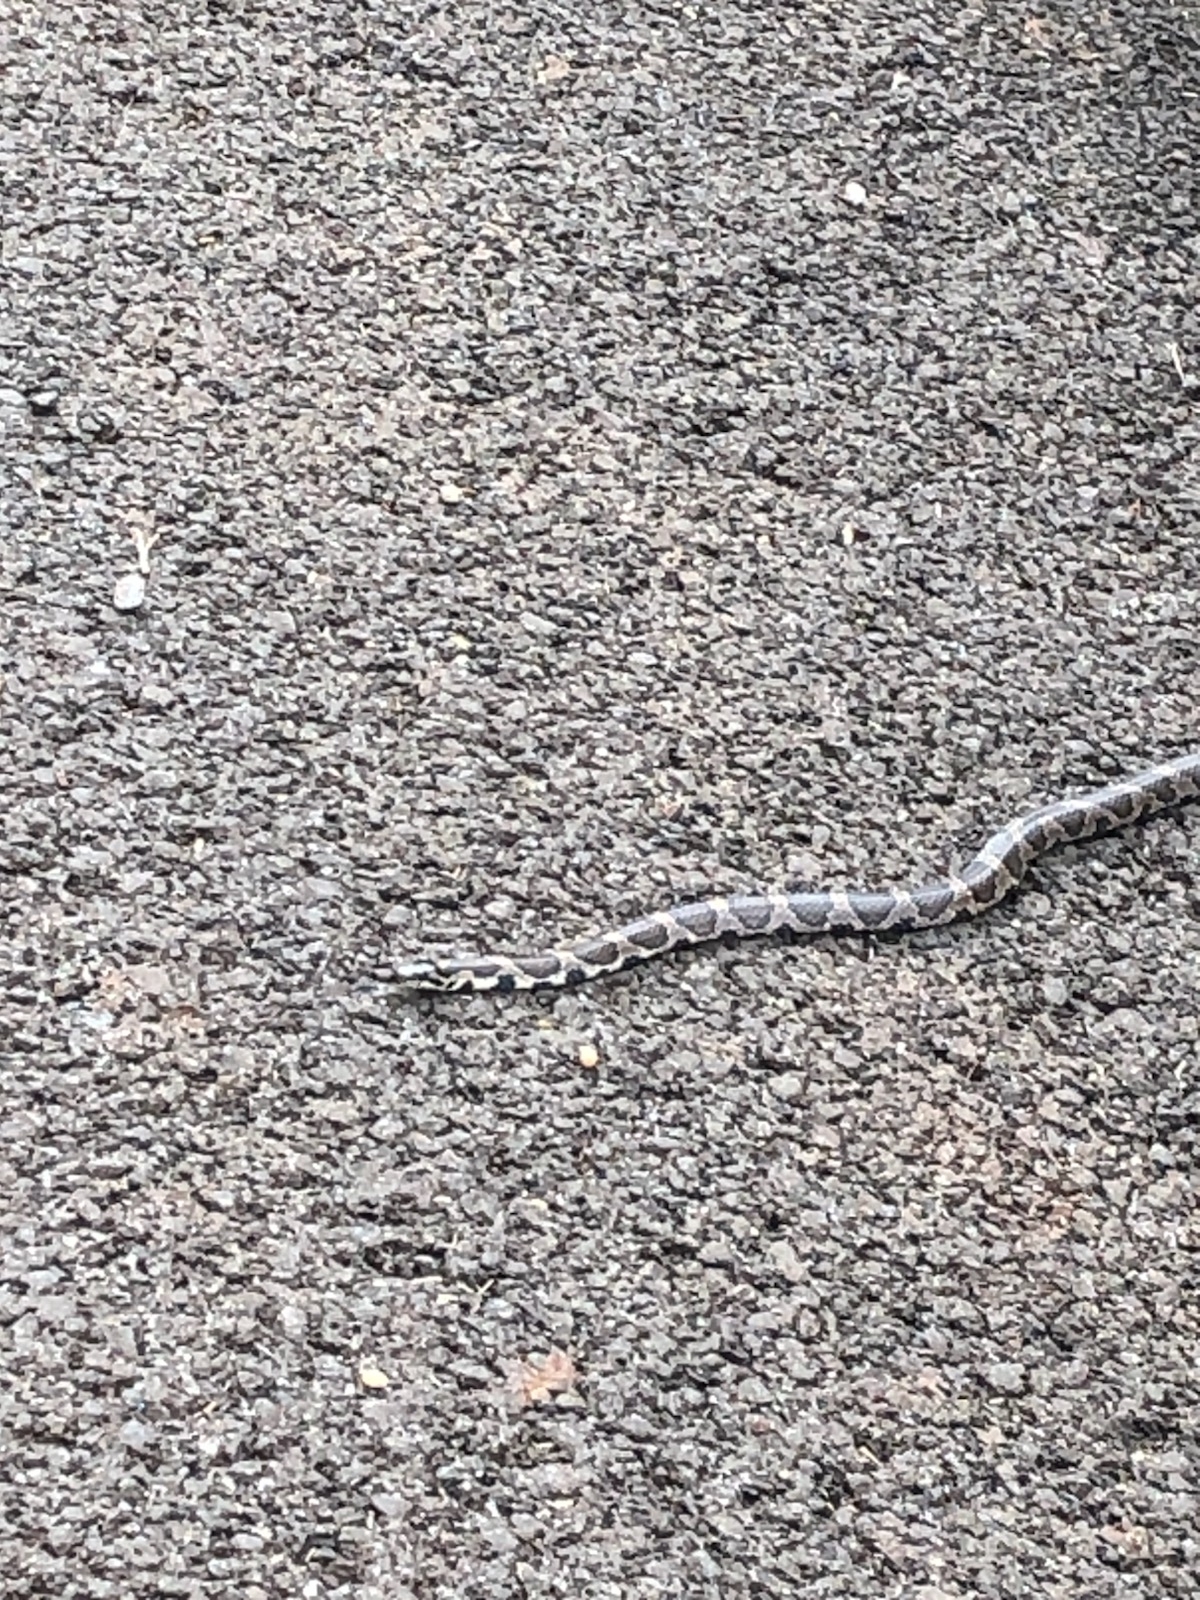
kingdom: Animalia
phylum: Chordata
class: Squamata
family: Colubridae
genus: Lampropeltis
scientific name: Lampropeltis triangulum
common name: Eastern milksnake
